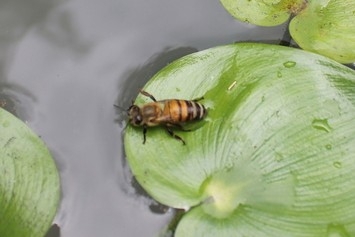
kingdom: Animalia
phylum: Arthropoda
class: Insecta
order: Hymenoptera
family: Apidae
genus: Apis
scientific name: Apis mellifera
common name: Honey bee
